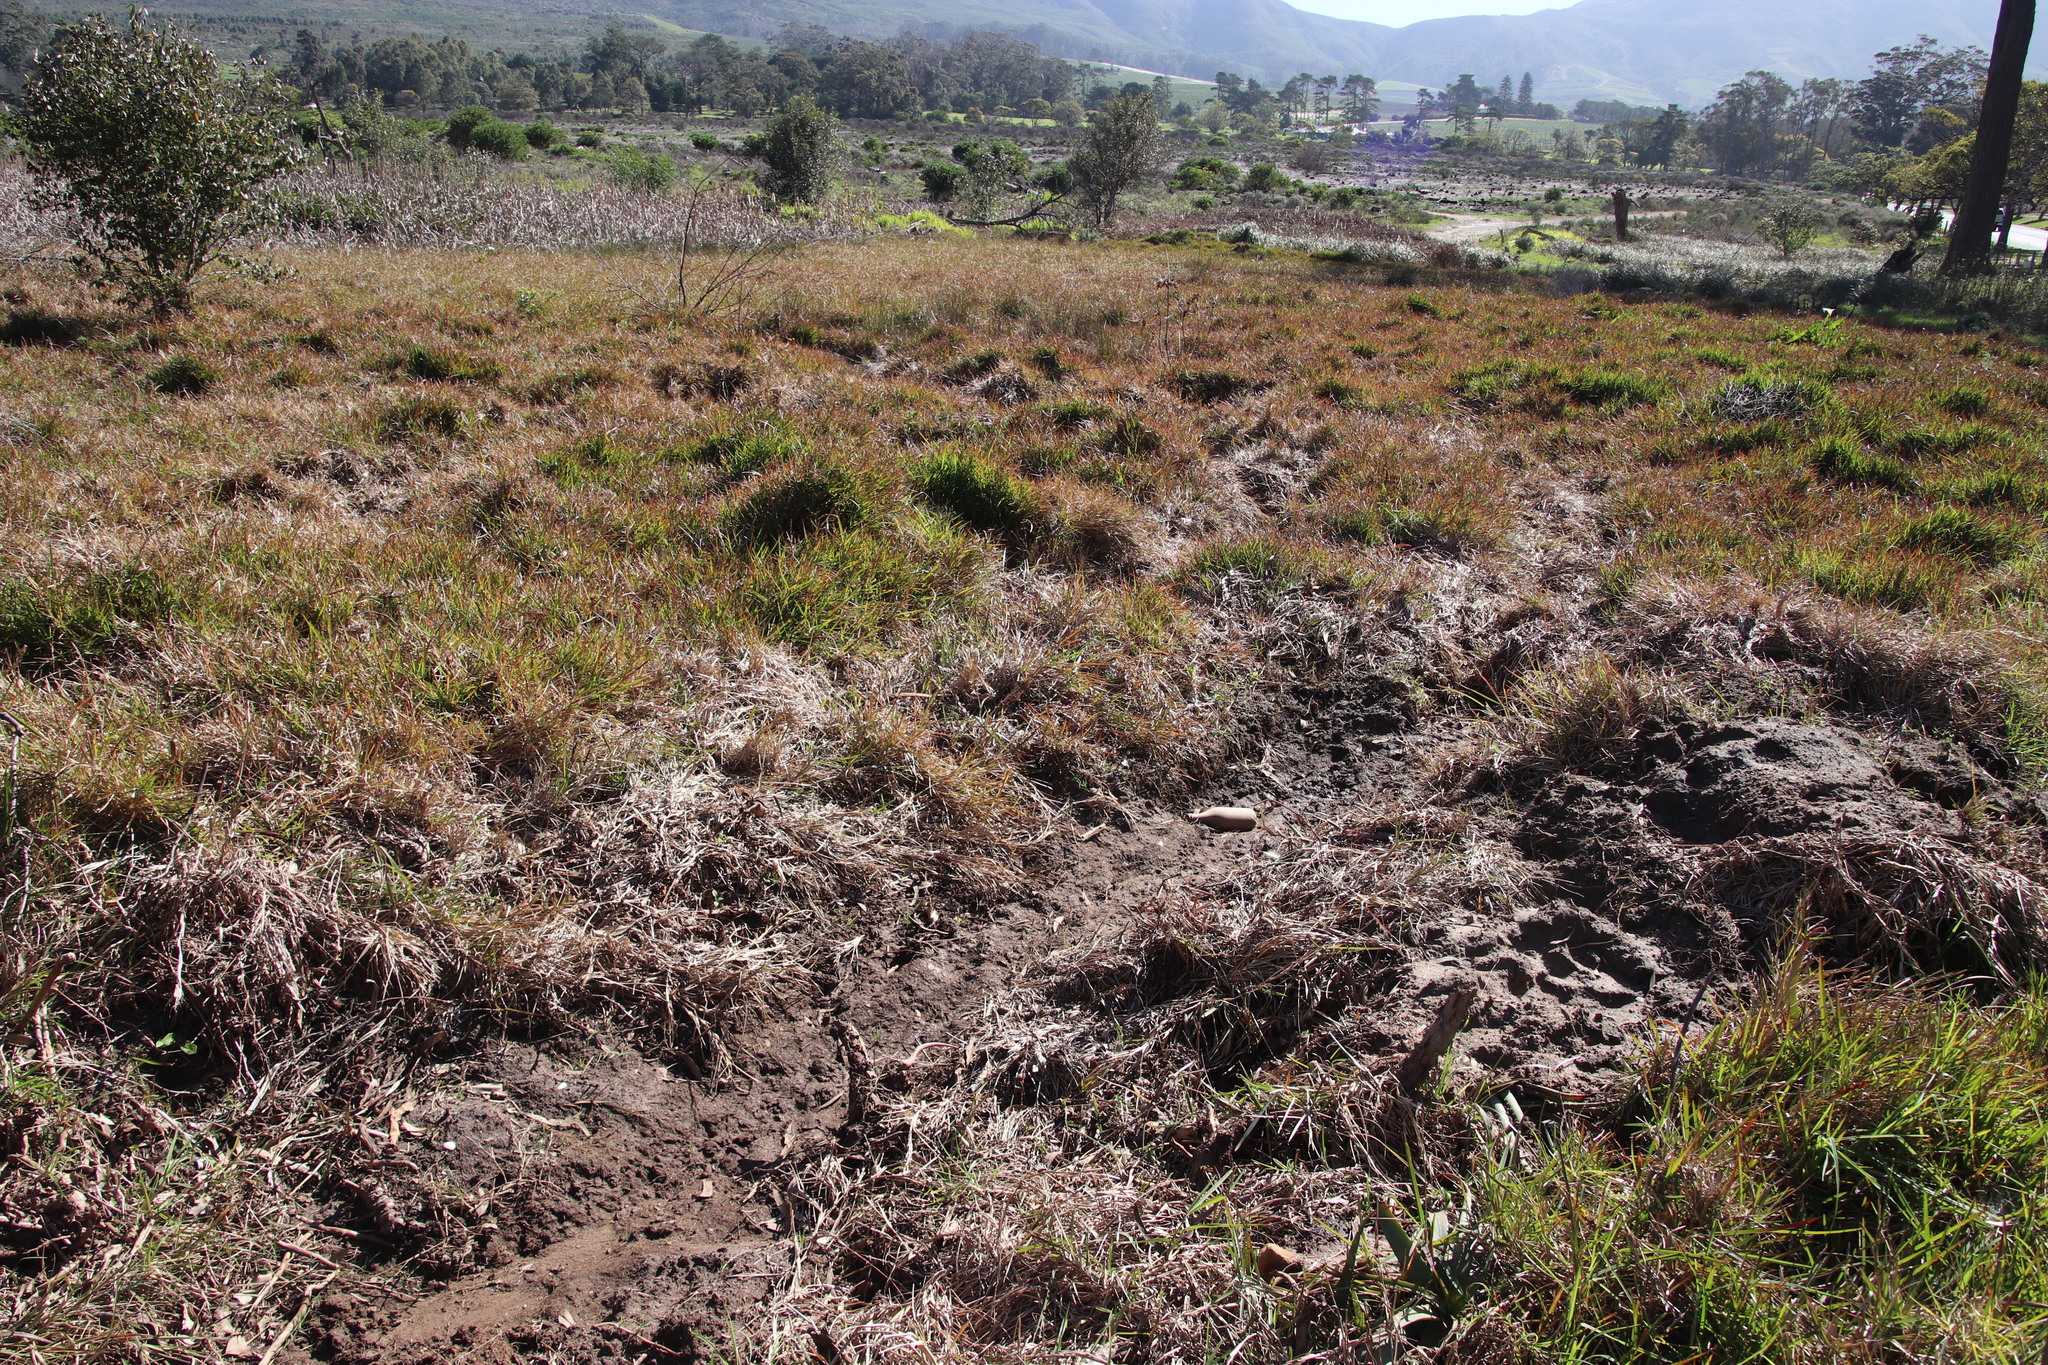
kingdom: Plantae
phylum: Tracheophyta
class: Liliopsida
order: Poales
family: Poaceae
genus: Stenotaphrum
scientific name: Stenotaphrum secundatum
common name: St. augustine grass
